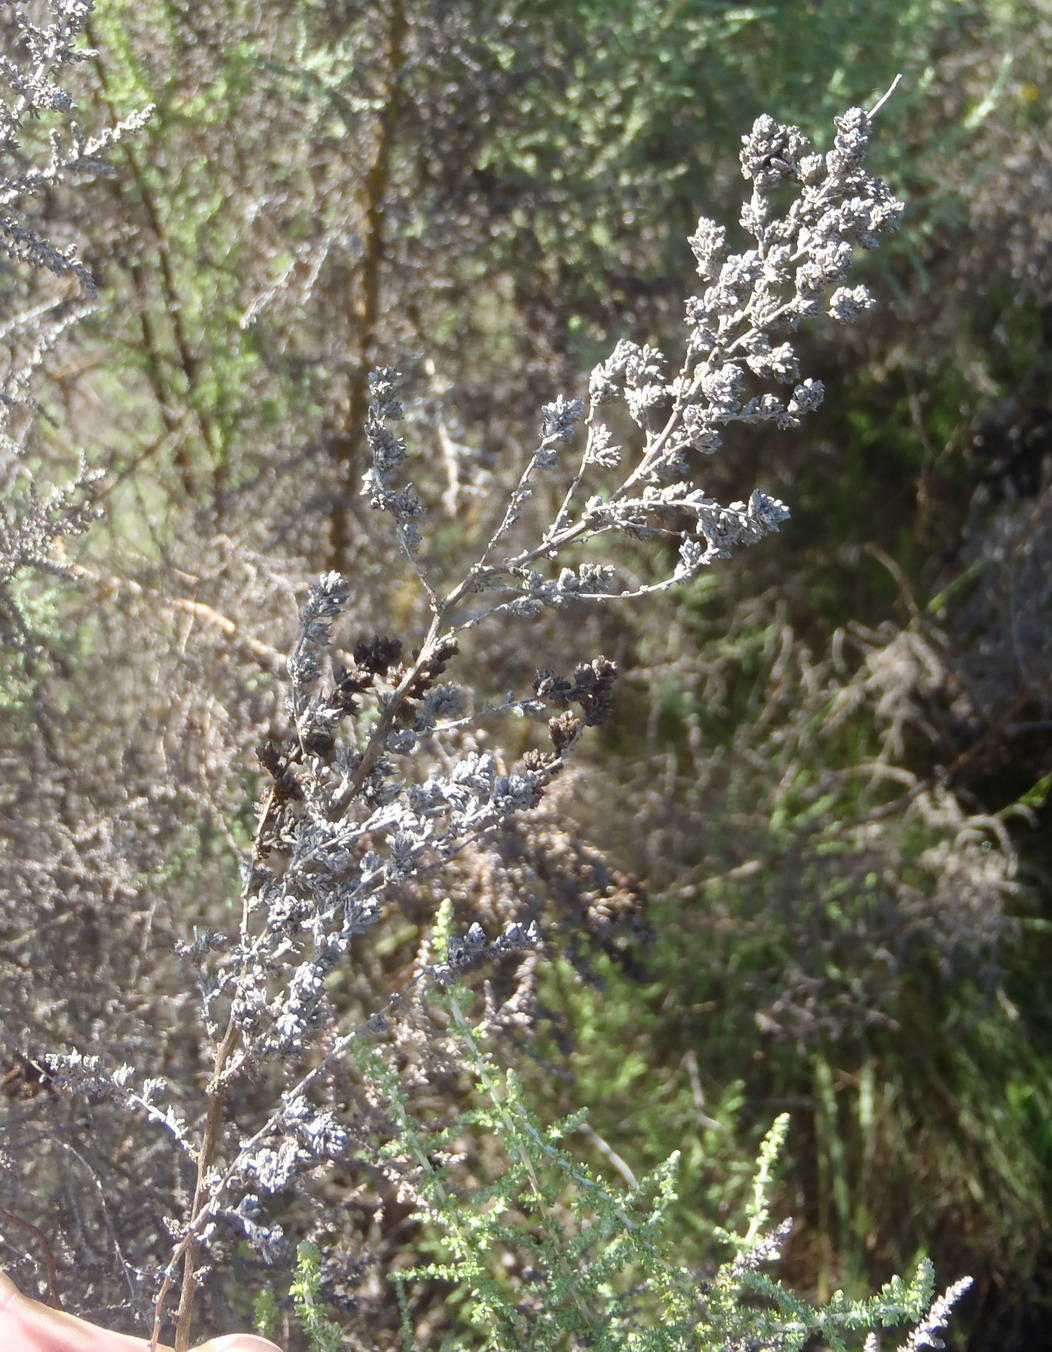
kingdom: Plantae
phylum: Tracheophyta
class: Magnoliopsida
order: Asterales
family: Asteraceae
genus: Seriphium
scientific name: Seriphium plumosum
